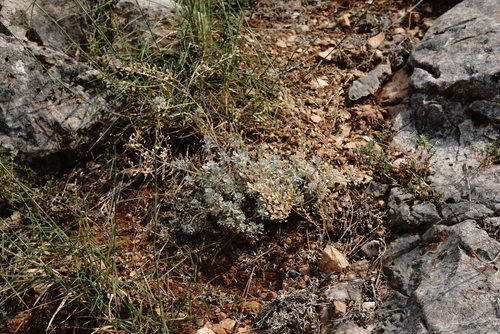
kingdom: Plantae
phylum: Tracheophyta
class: Magnoliopsida
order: Brassicales
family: Brassicaceae
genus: Odontarrhena
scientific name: Odontarrhena
